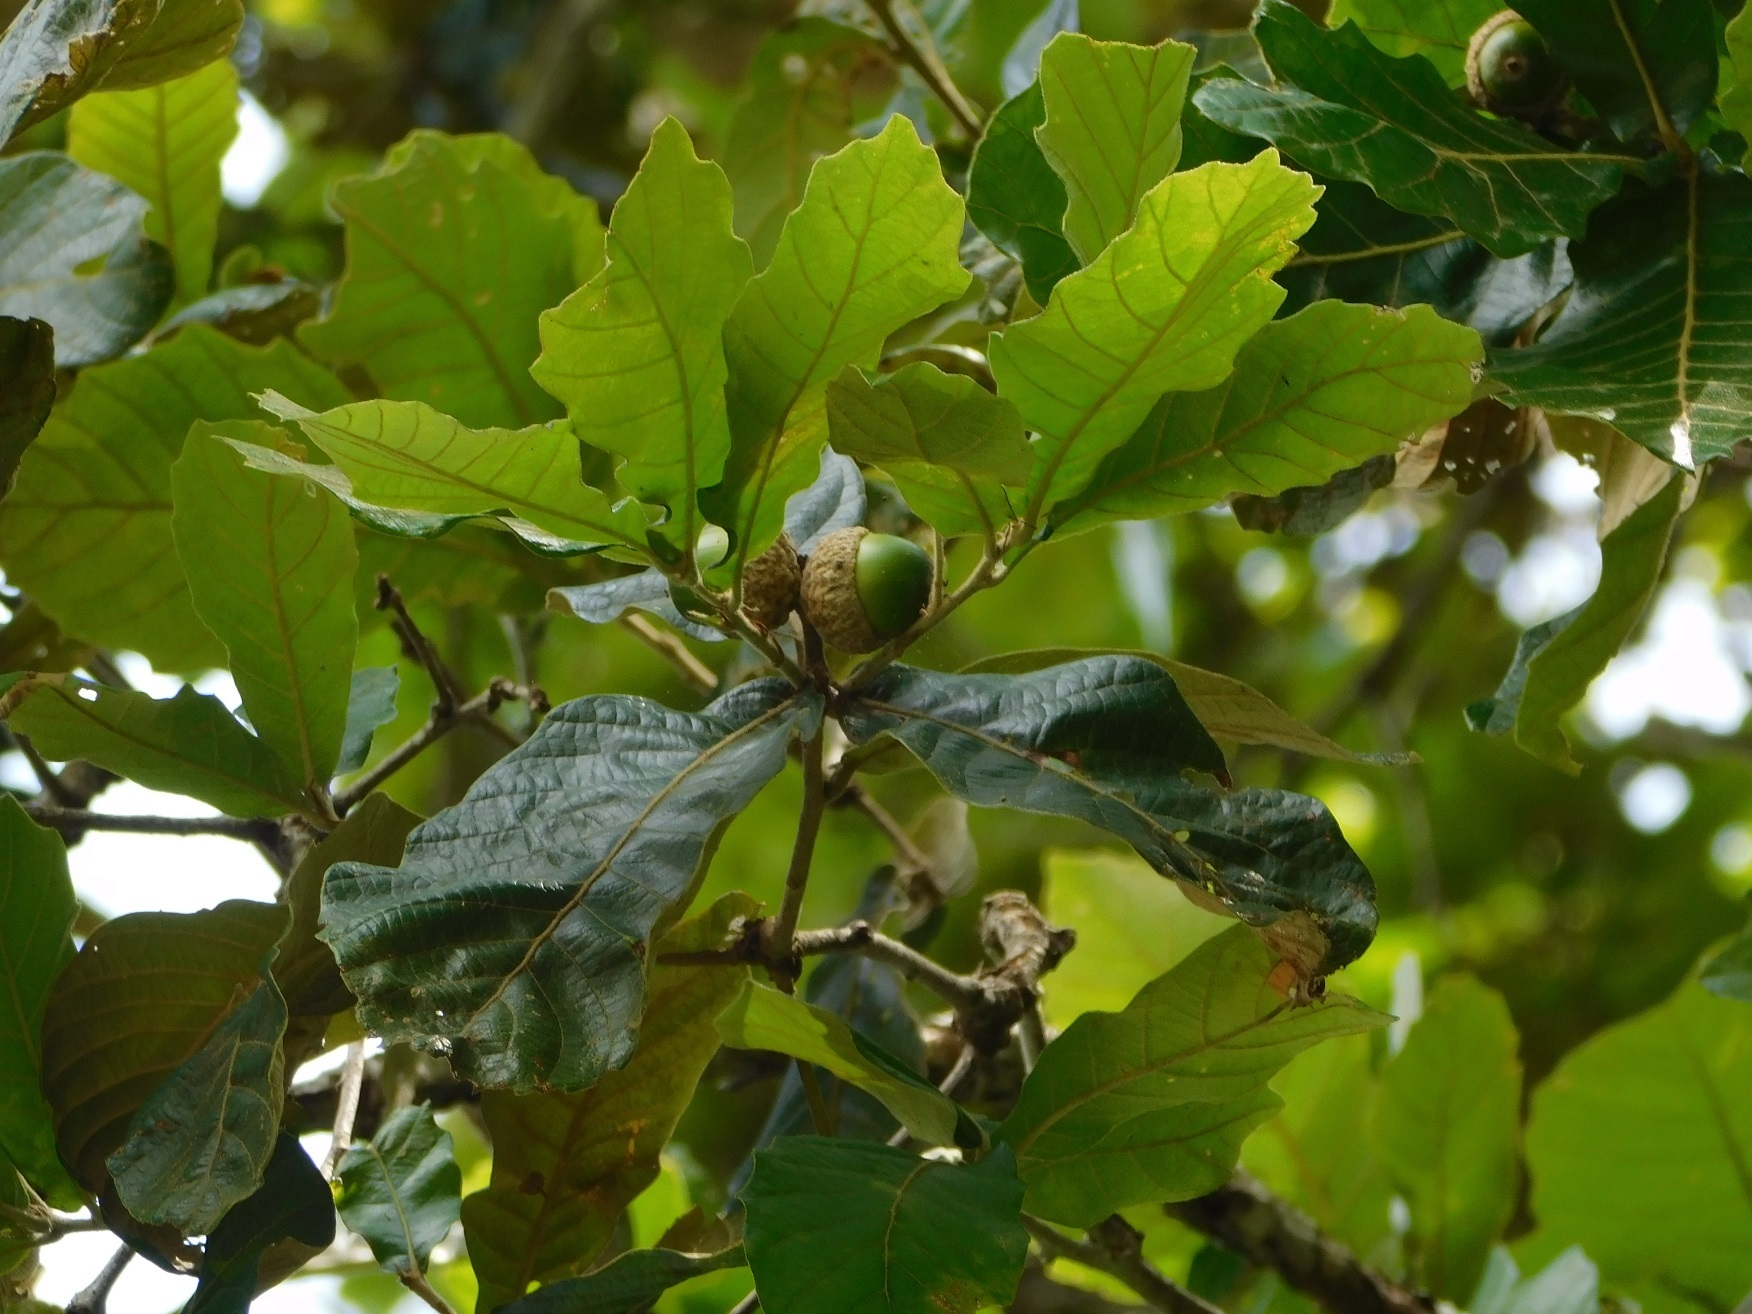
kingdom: Plantae
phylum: Tracheophyta
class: Magnoliopsida
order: Fagales
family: Fagaceae
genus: Quercus
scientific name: Quercus purulhana
